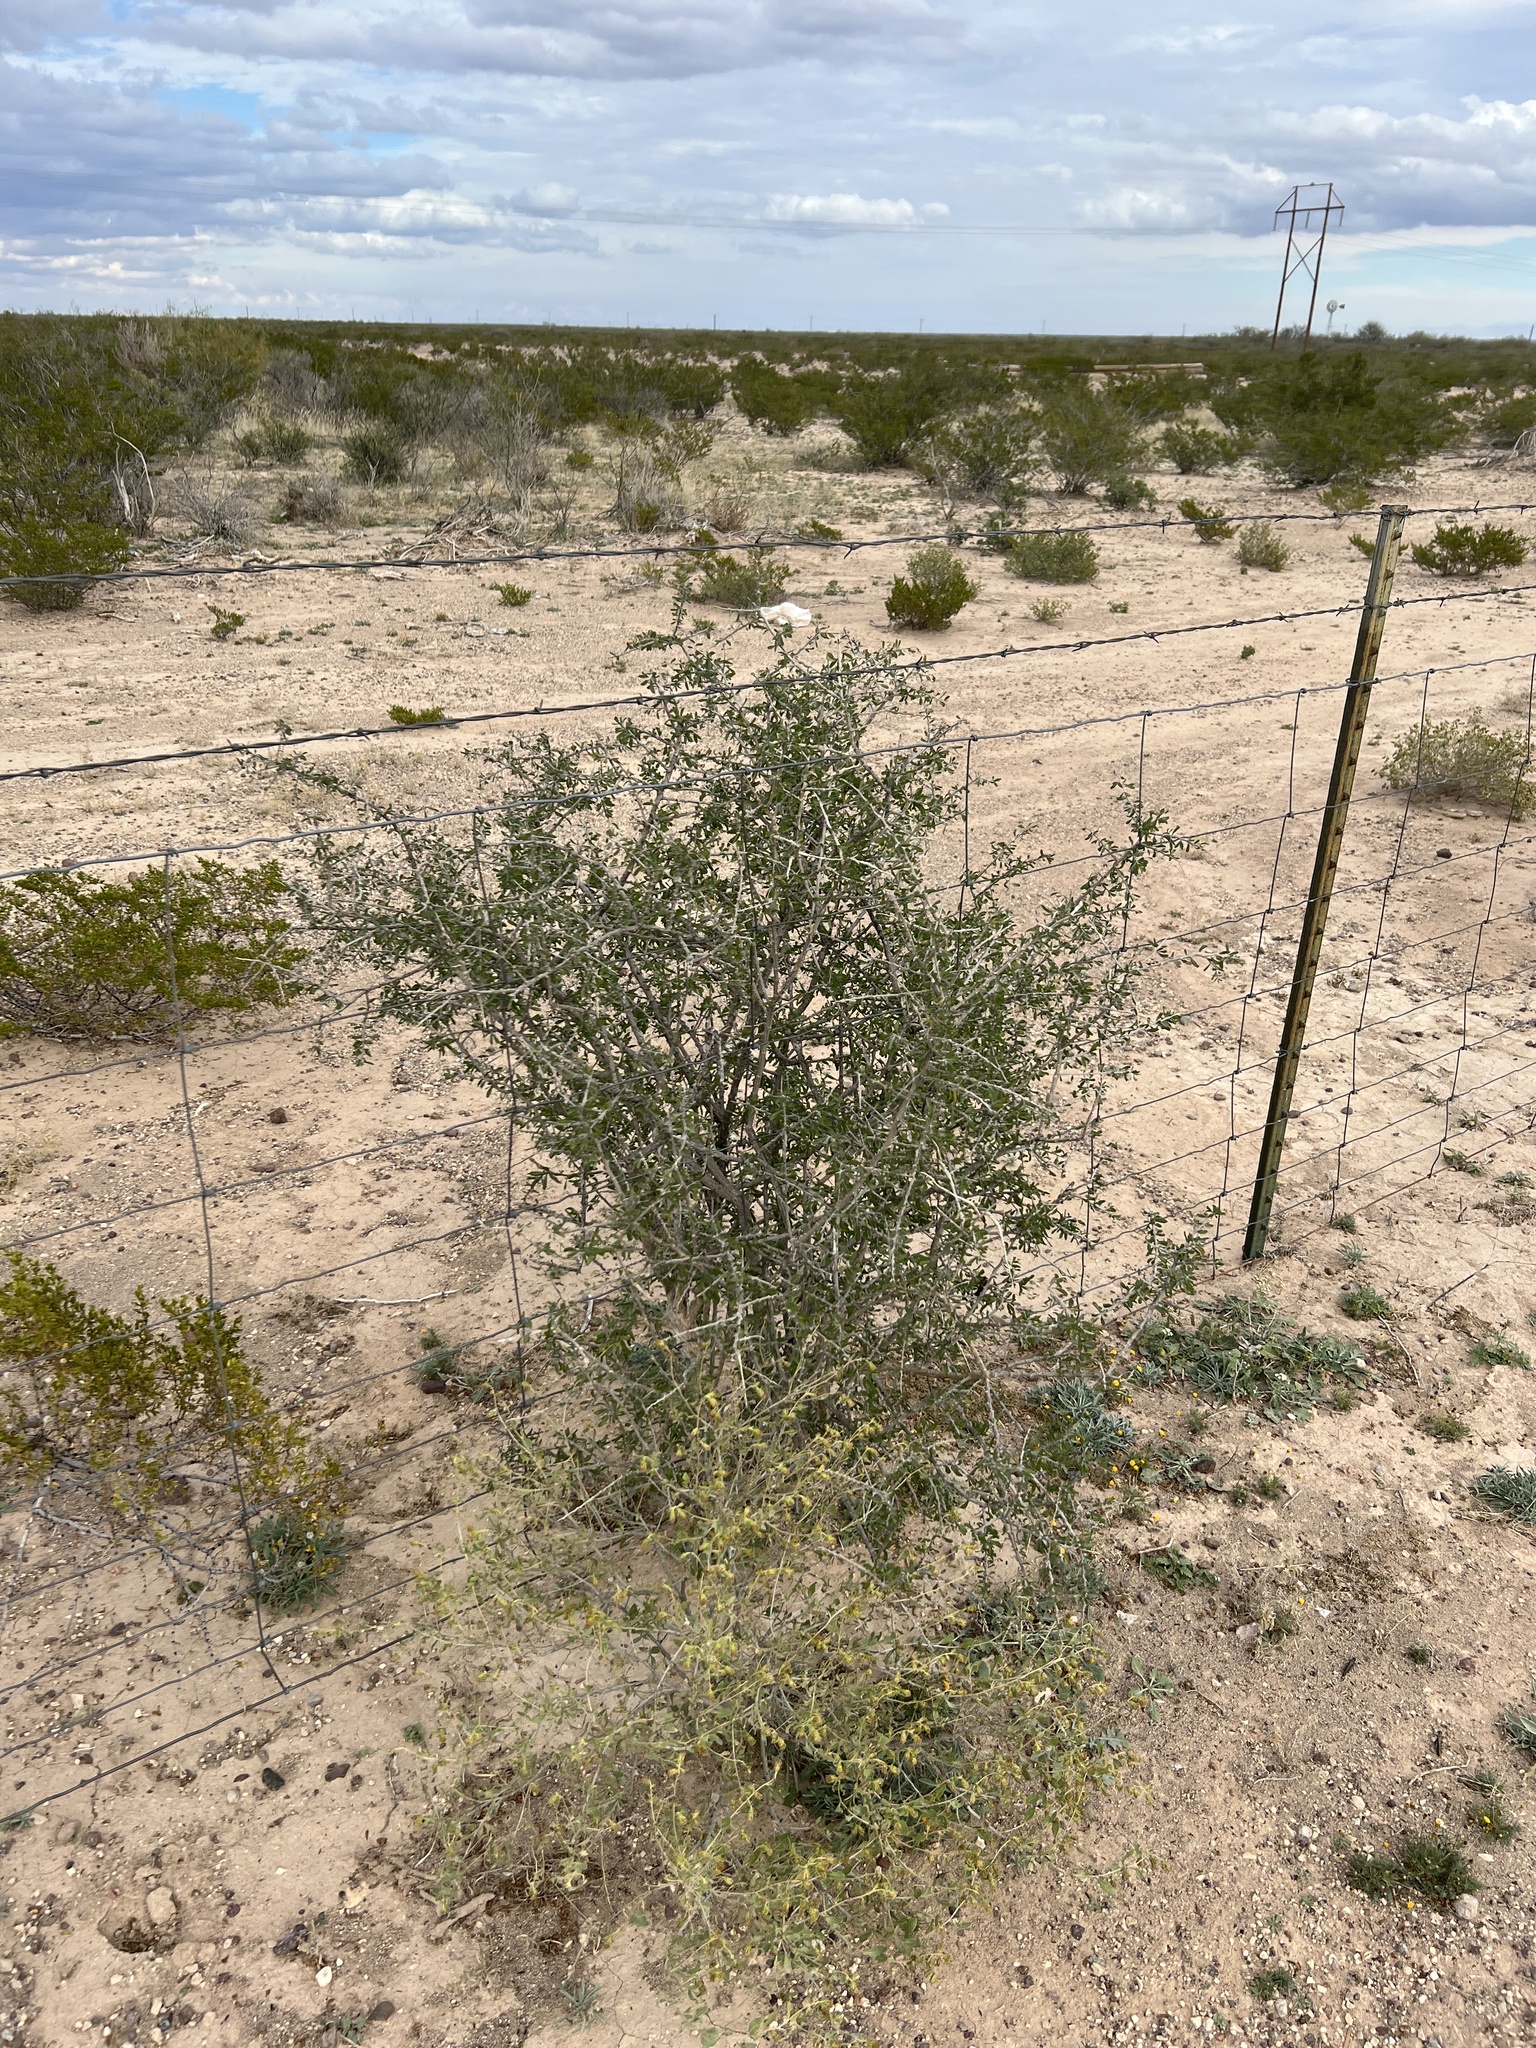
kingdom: Plantae
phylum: Tracheophyta
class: Magnoliopsida
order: Solanales
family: Solanaceae
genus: Lycium
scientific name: Lycium berlandieri
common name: Berlandier wolfberry
